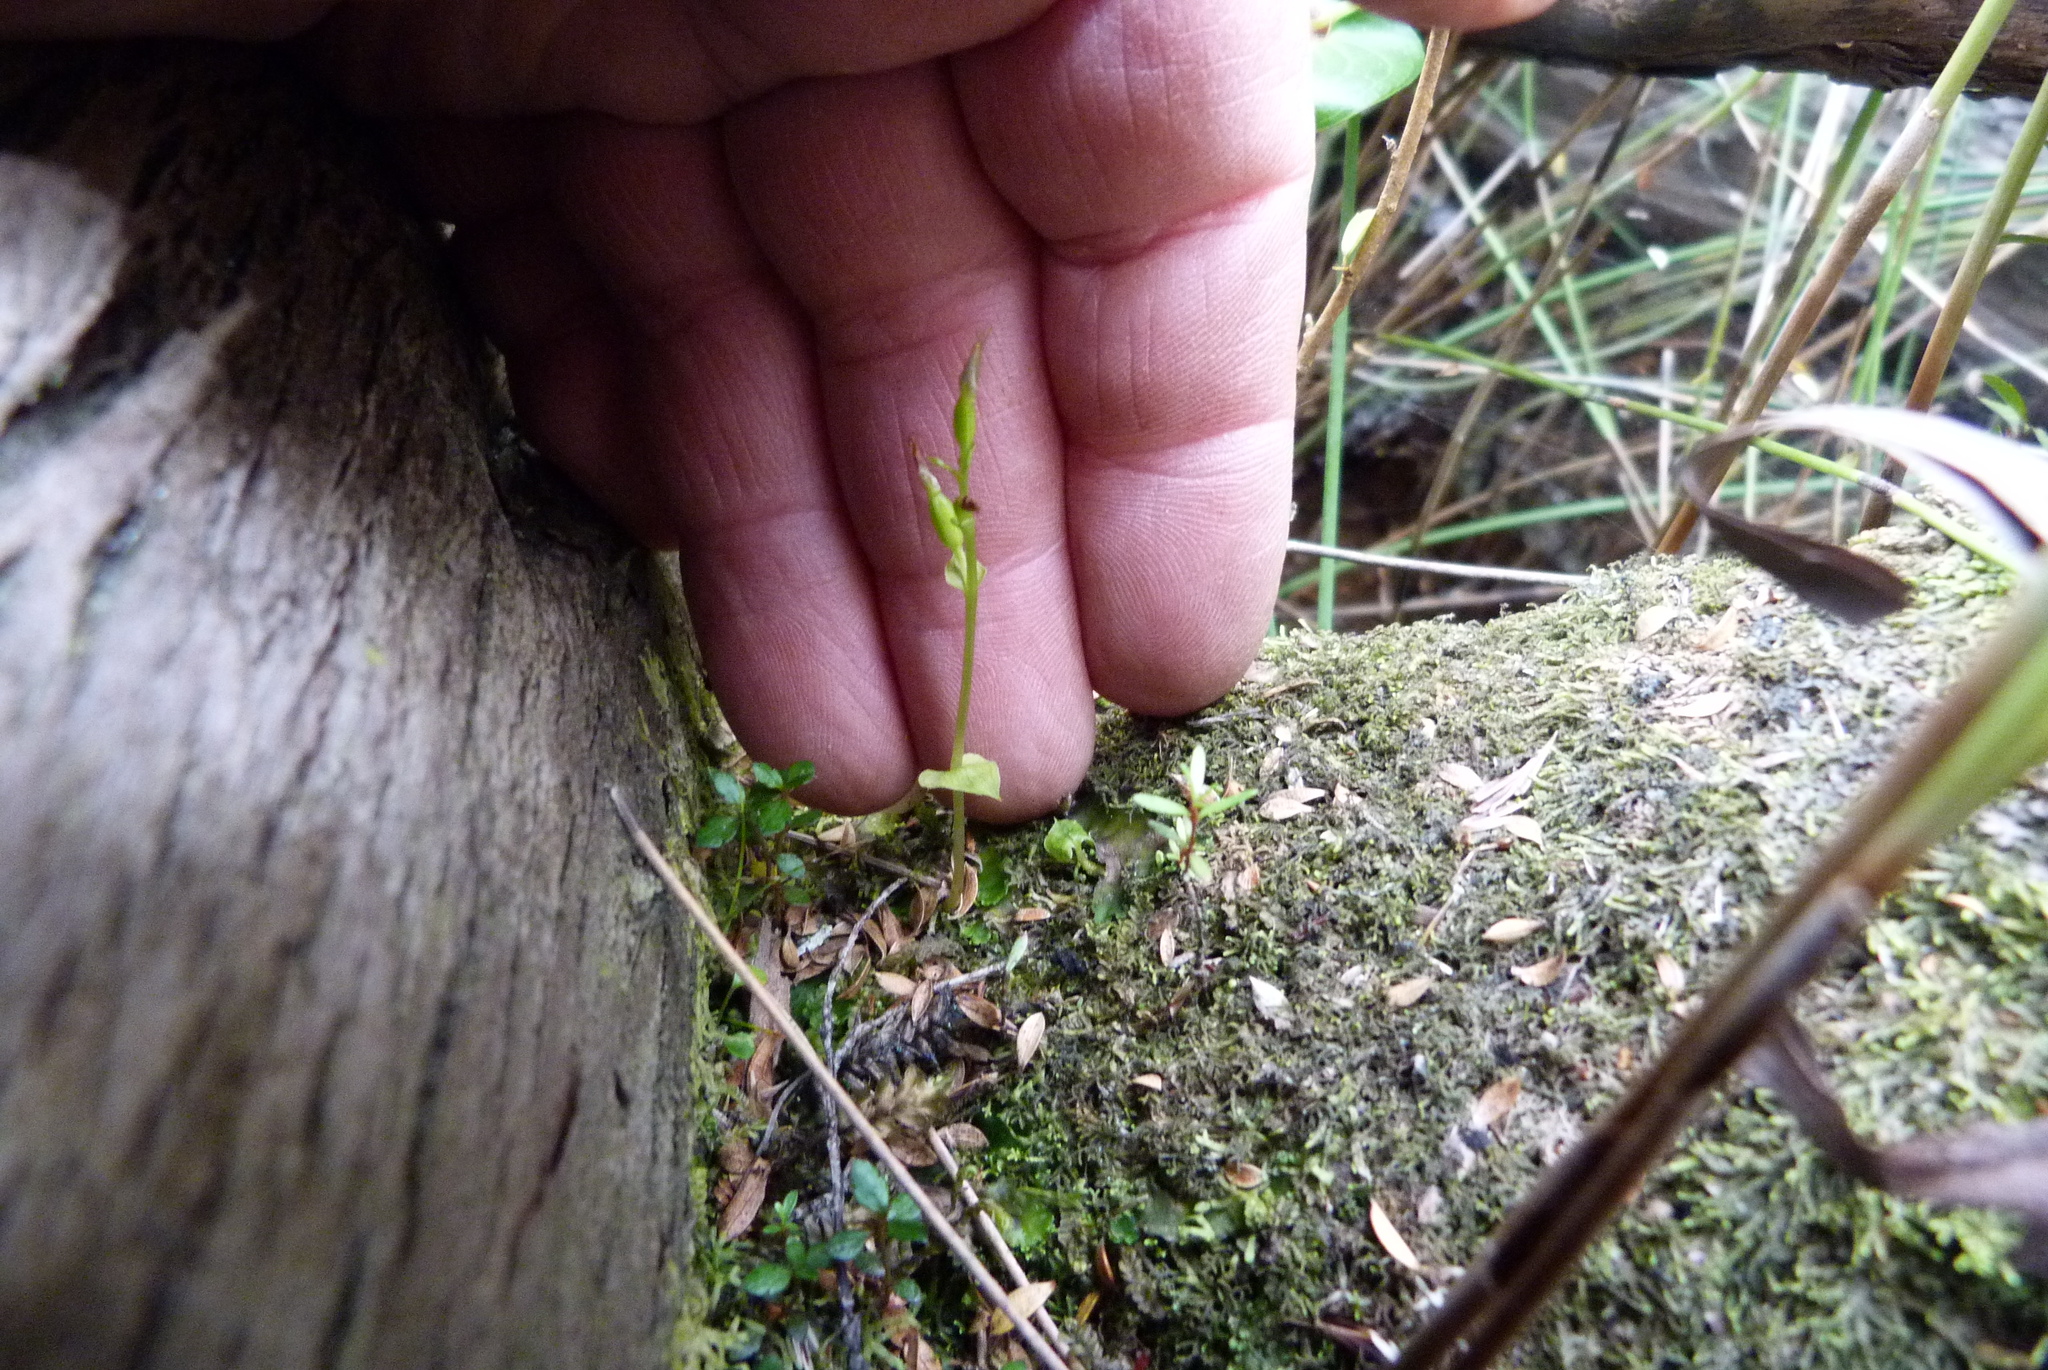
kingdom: Plantae
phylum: Tracheophyta
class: Liliopsida
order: Asparagales
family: Orchidaceae
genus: Acianthus
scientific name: Acianthus sinclairii
